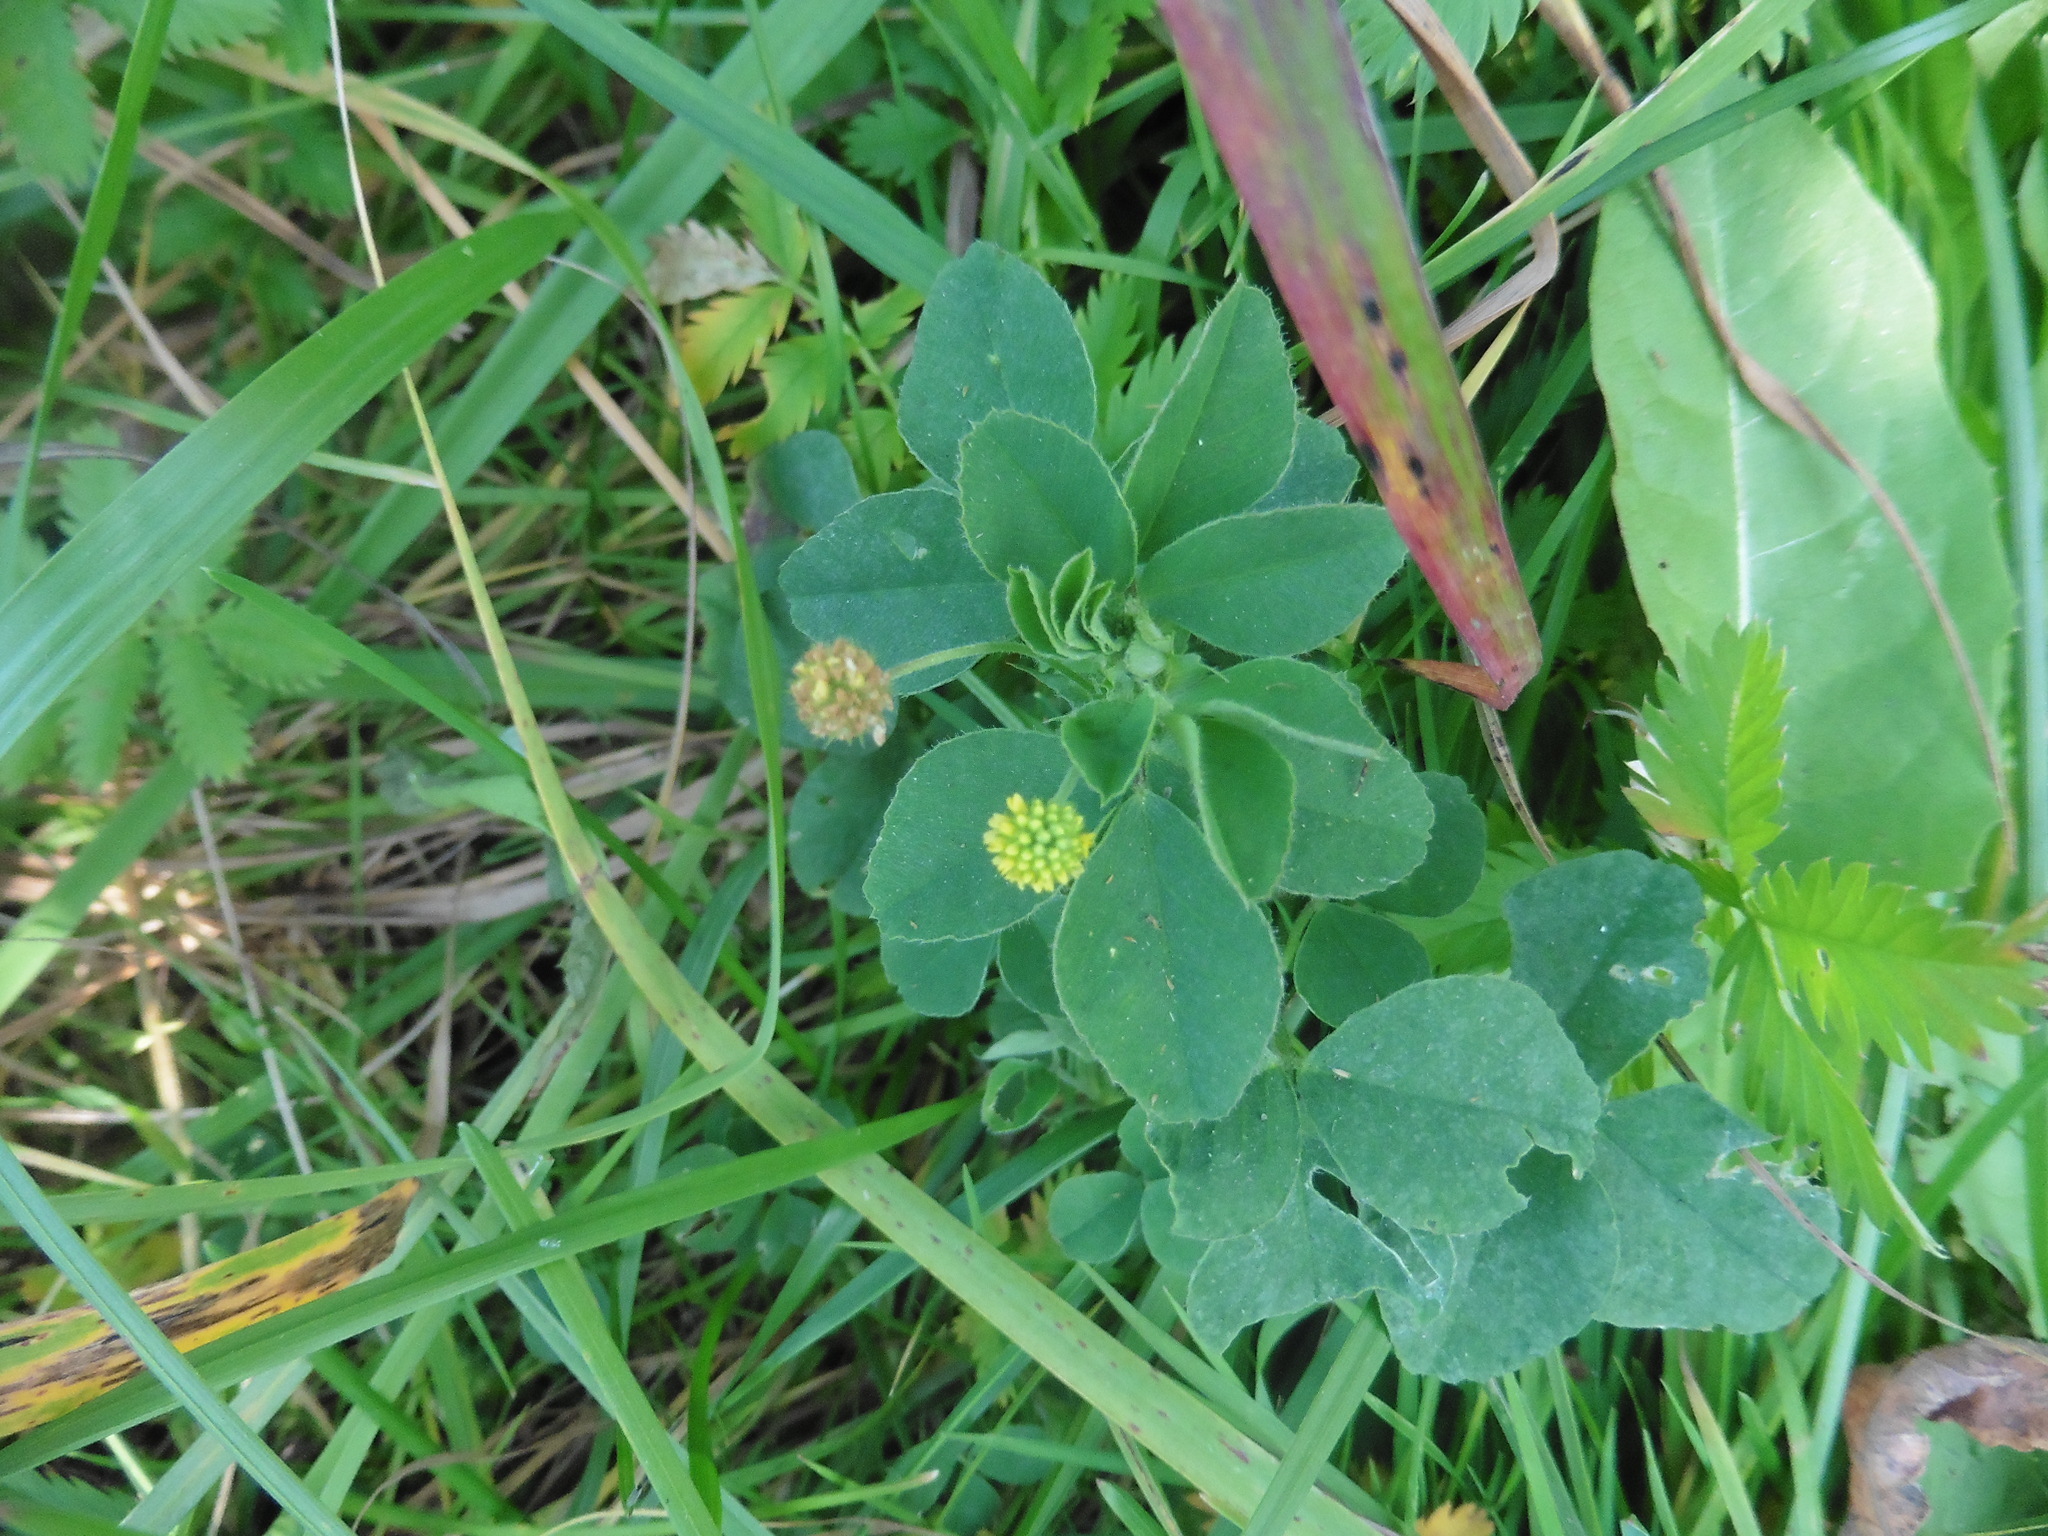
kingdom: Plantae
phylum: Tracheophyta
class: Magnoliopsida
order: Fabales
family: Fabaceae
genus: Medicago
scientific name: Medicago lupulina
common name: Black medick
